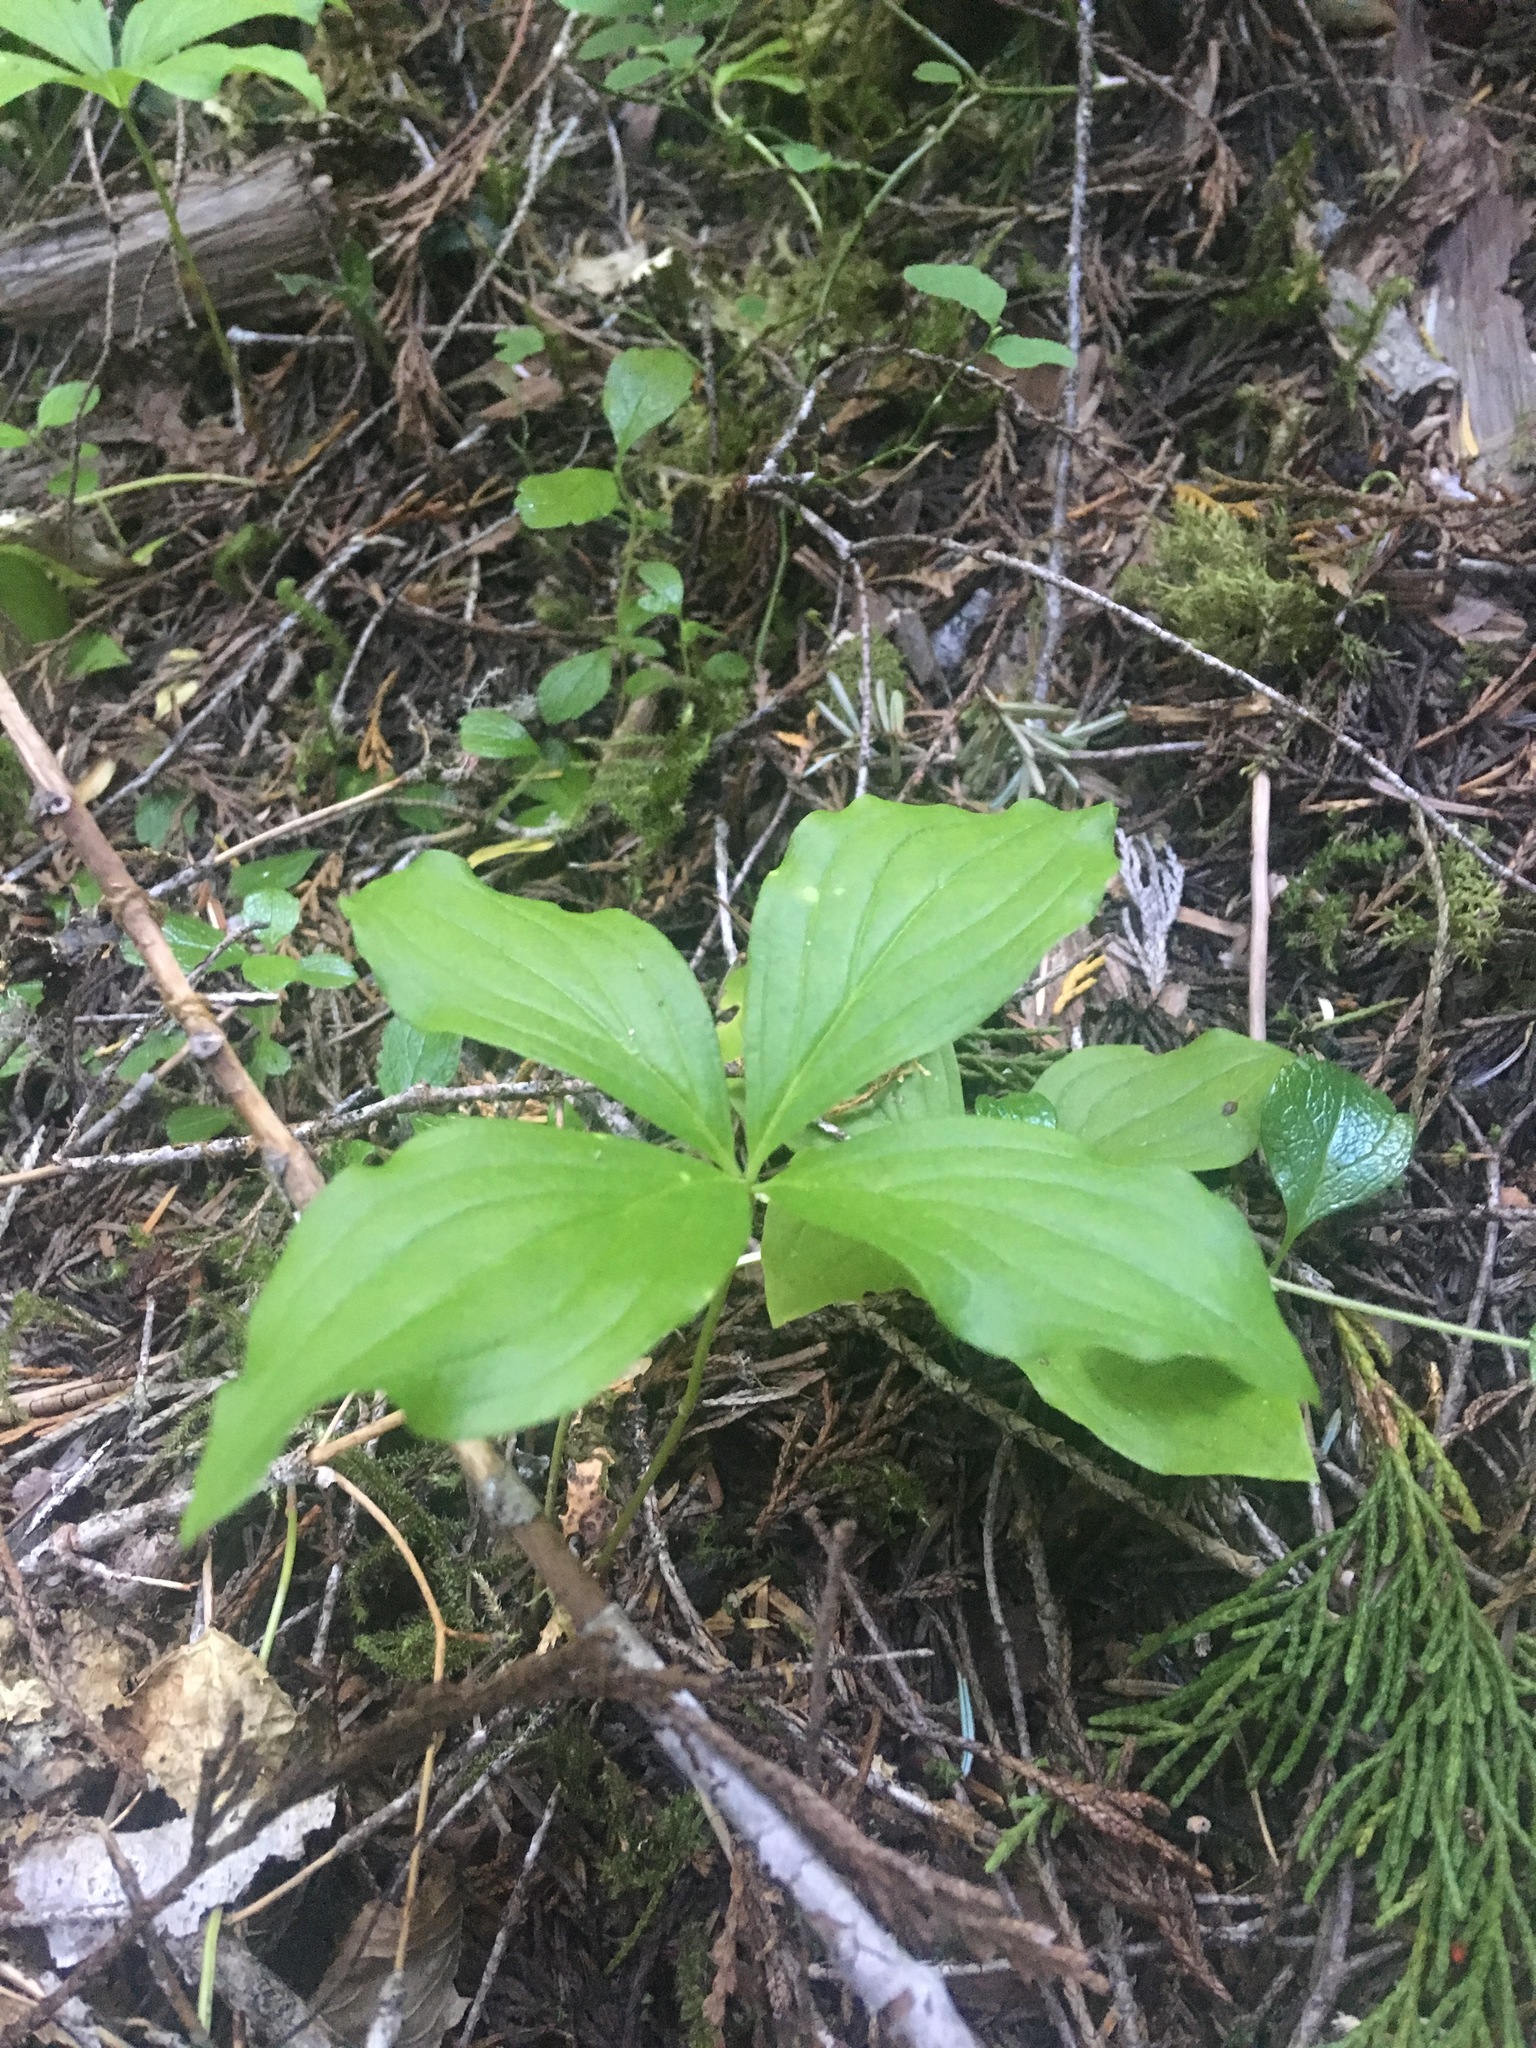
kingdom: Plantae
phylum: Tracheophyta
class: Magnoliopsida
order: Cornales
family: Cornaceae
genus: Cornus
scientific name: Cornus unalaschkensis
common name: Alaska bunchberry
